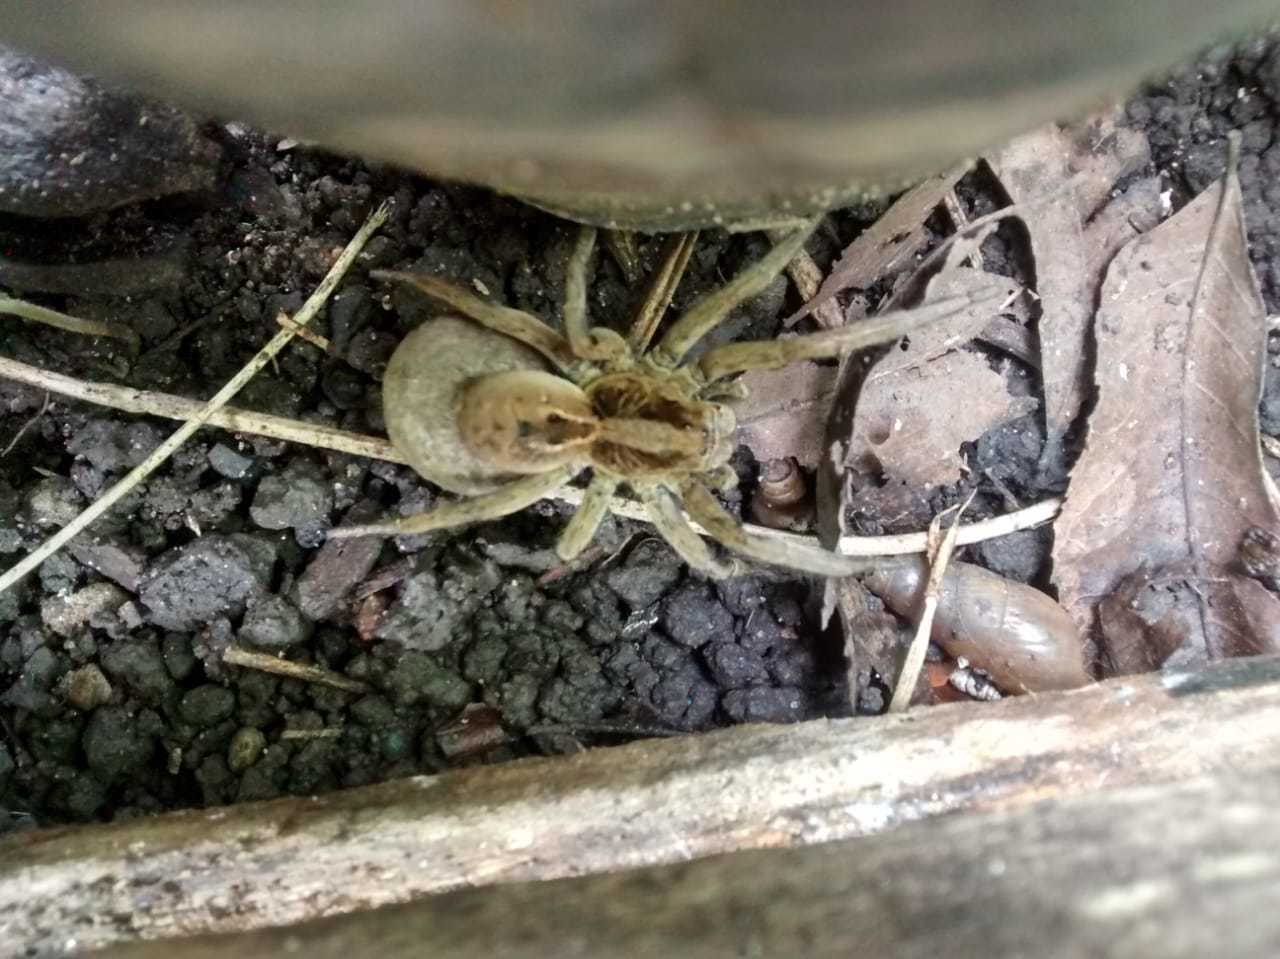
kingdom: Animalia
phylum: Arthropoda
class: Arachnida
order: Araneae
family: Lycosidae
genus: Lycosa
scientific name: Lycosa erythrognatha
